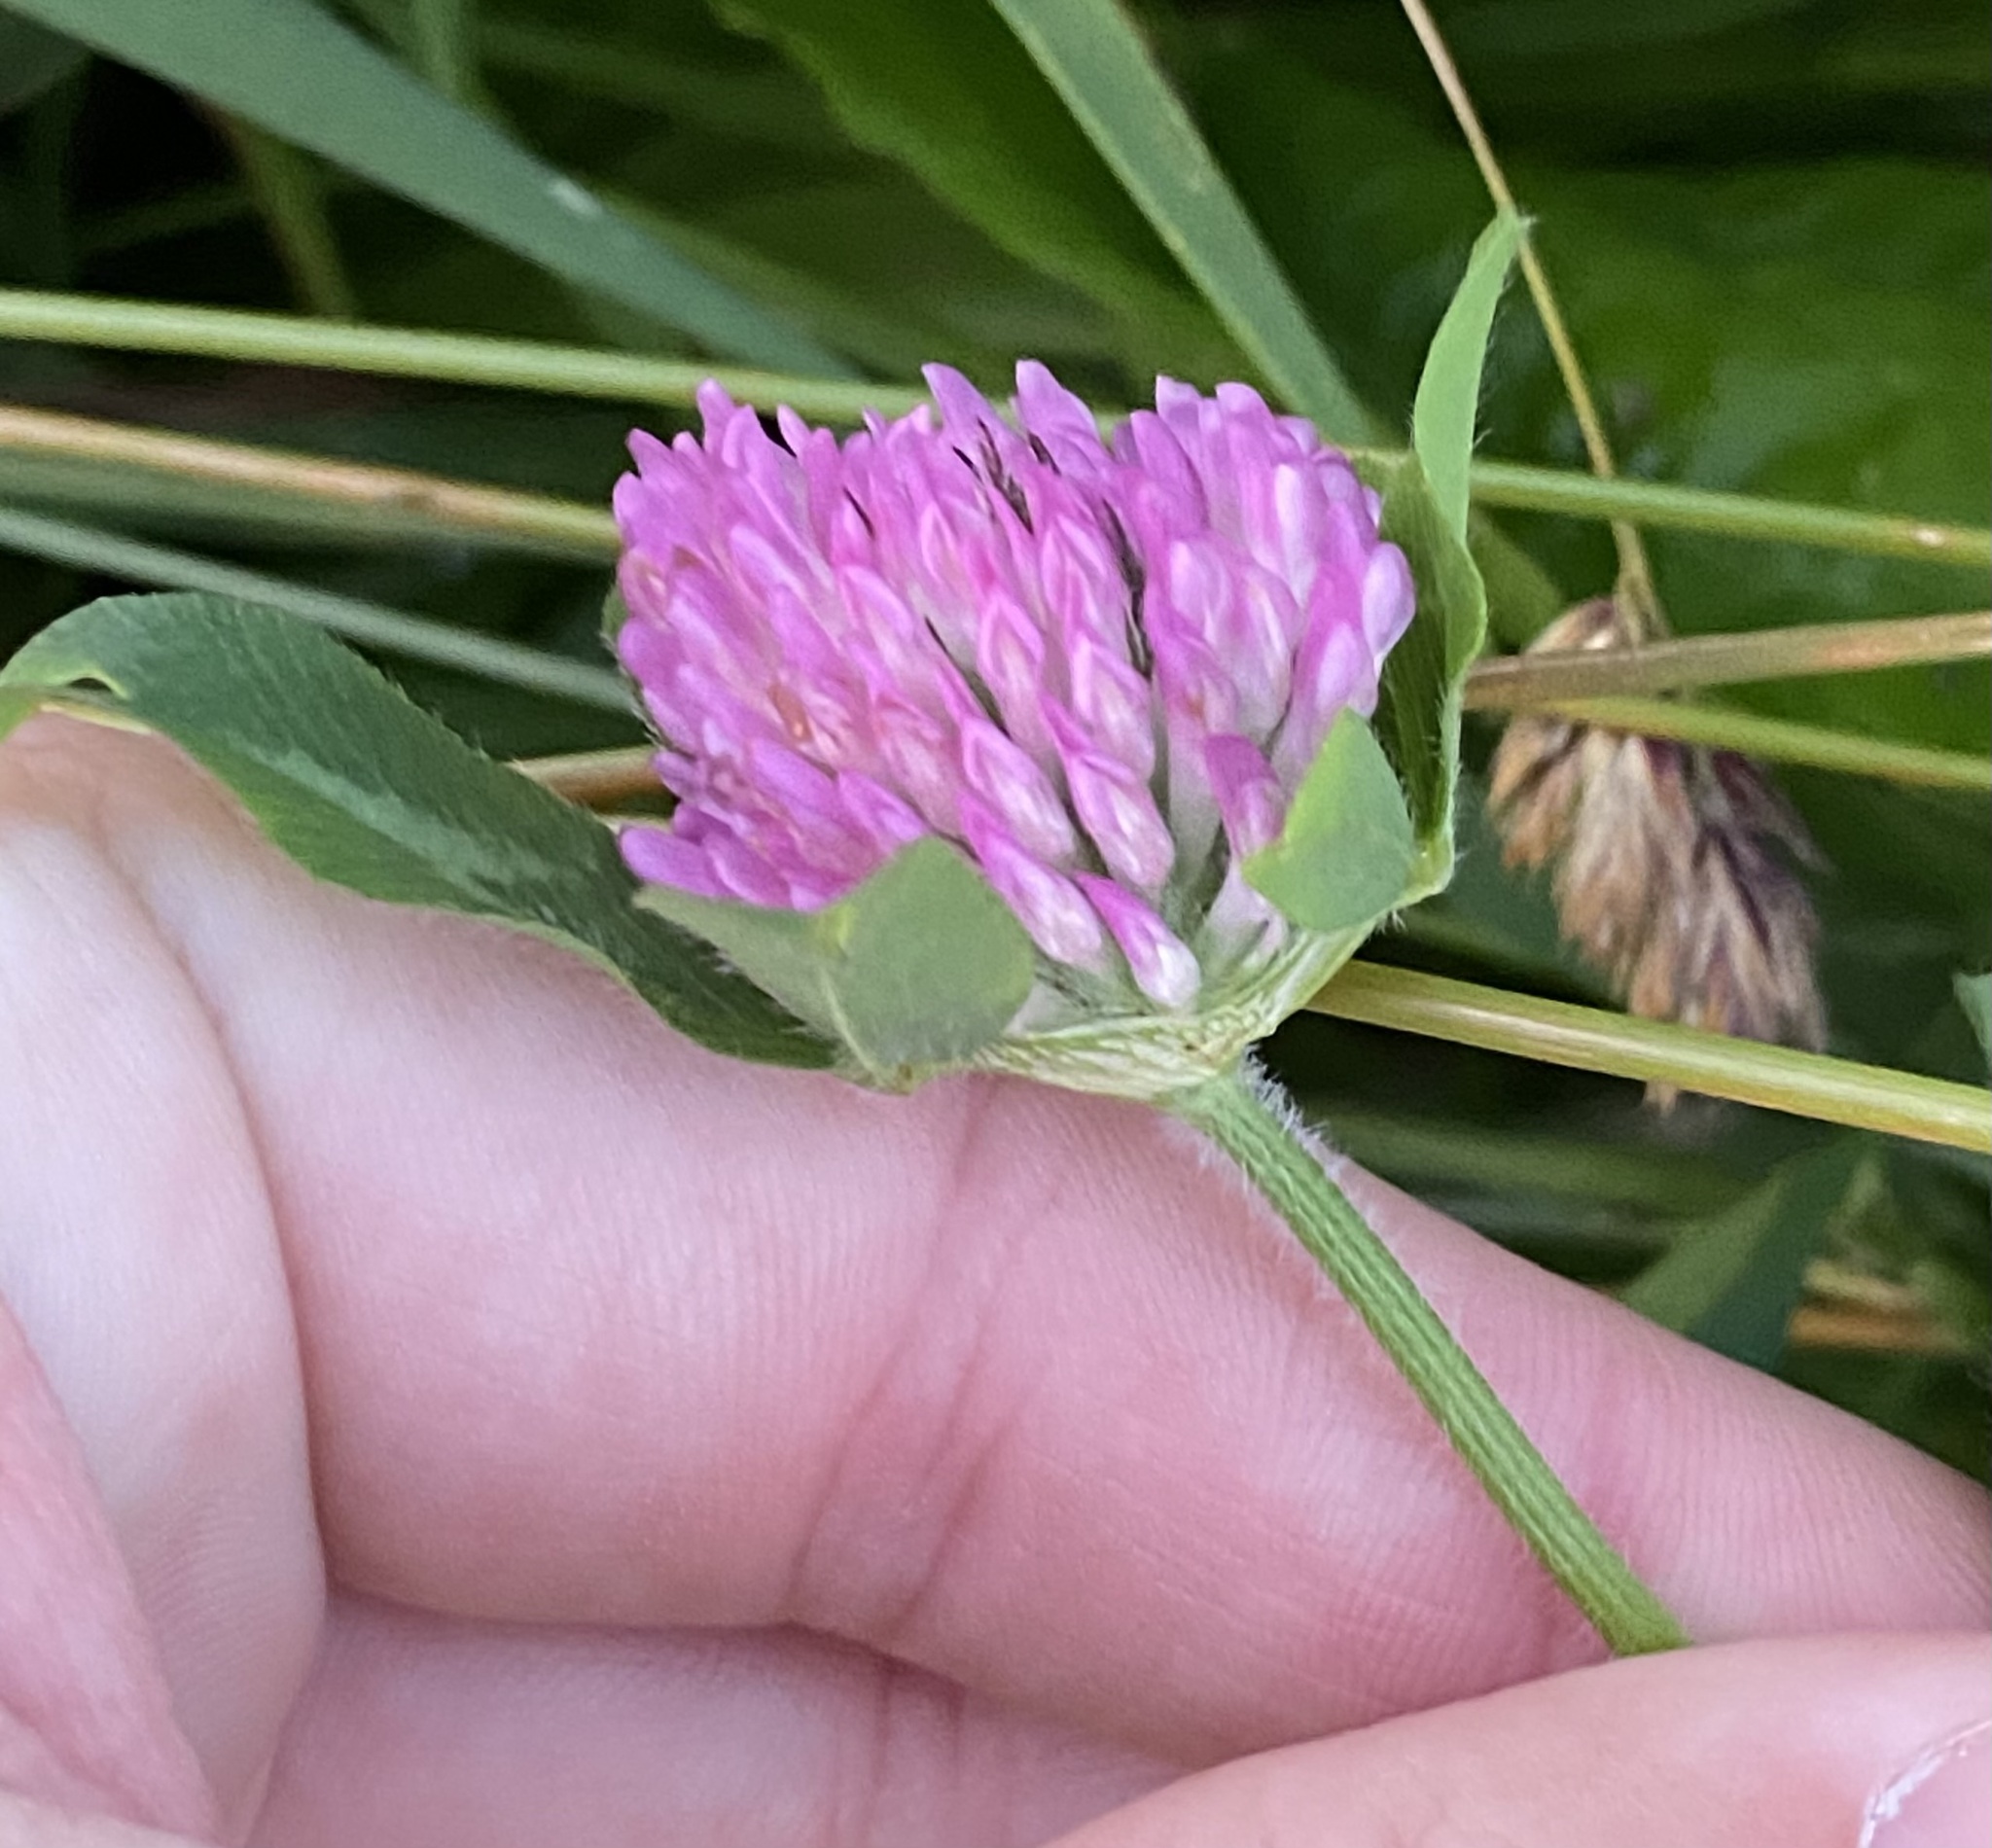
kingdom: Plantae
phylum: Tracheophyta
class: Magnoliopsida
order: Fabales
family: Fabaceae
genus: Trifolium
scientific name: Trifolium pratense
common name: Red clover
